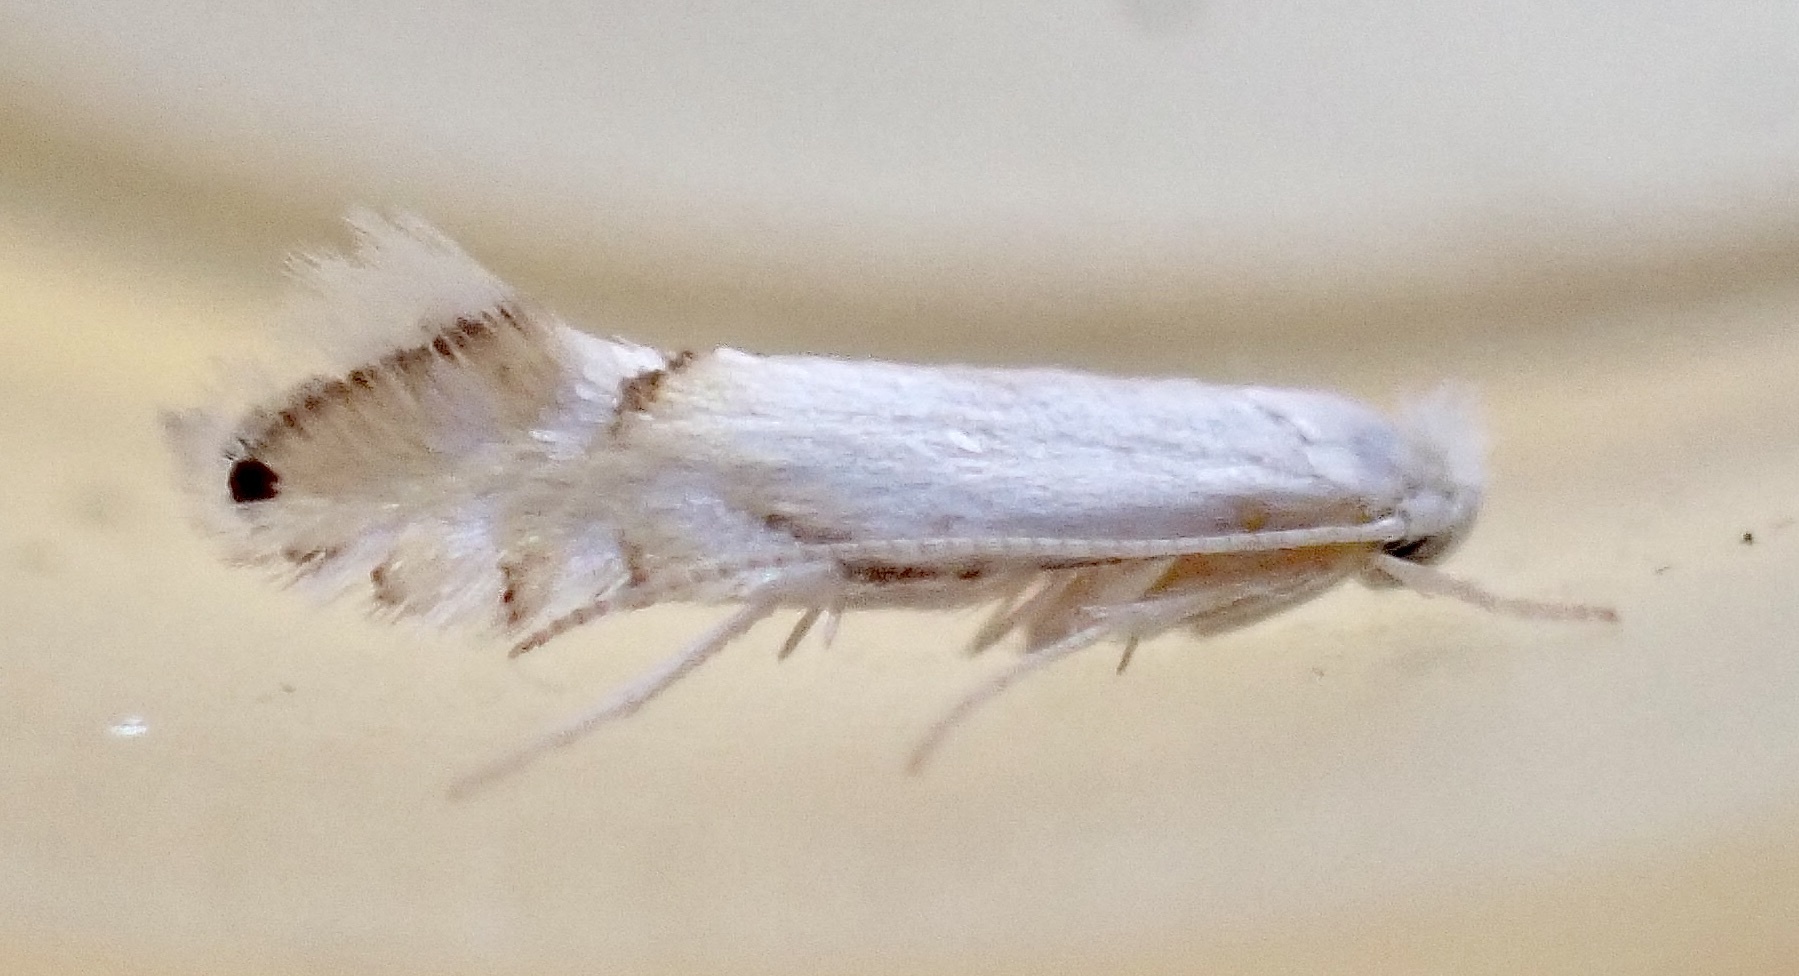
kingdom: Animalia
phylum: Arthropoda
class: Insecta
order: Lepidoptera
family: Gracillariidae
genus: Phyllonorycter
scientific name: Phyllonorycter clemensella
